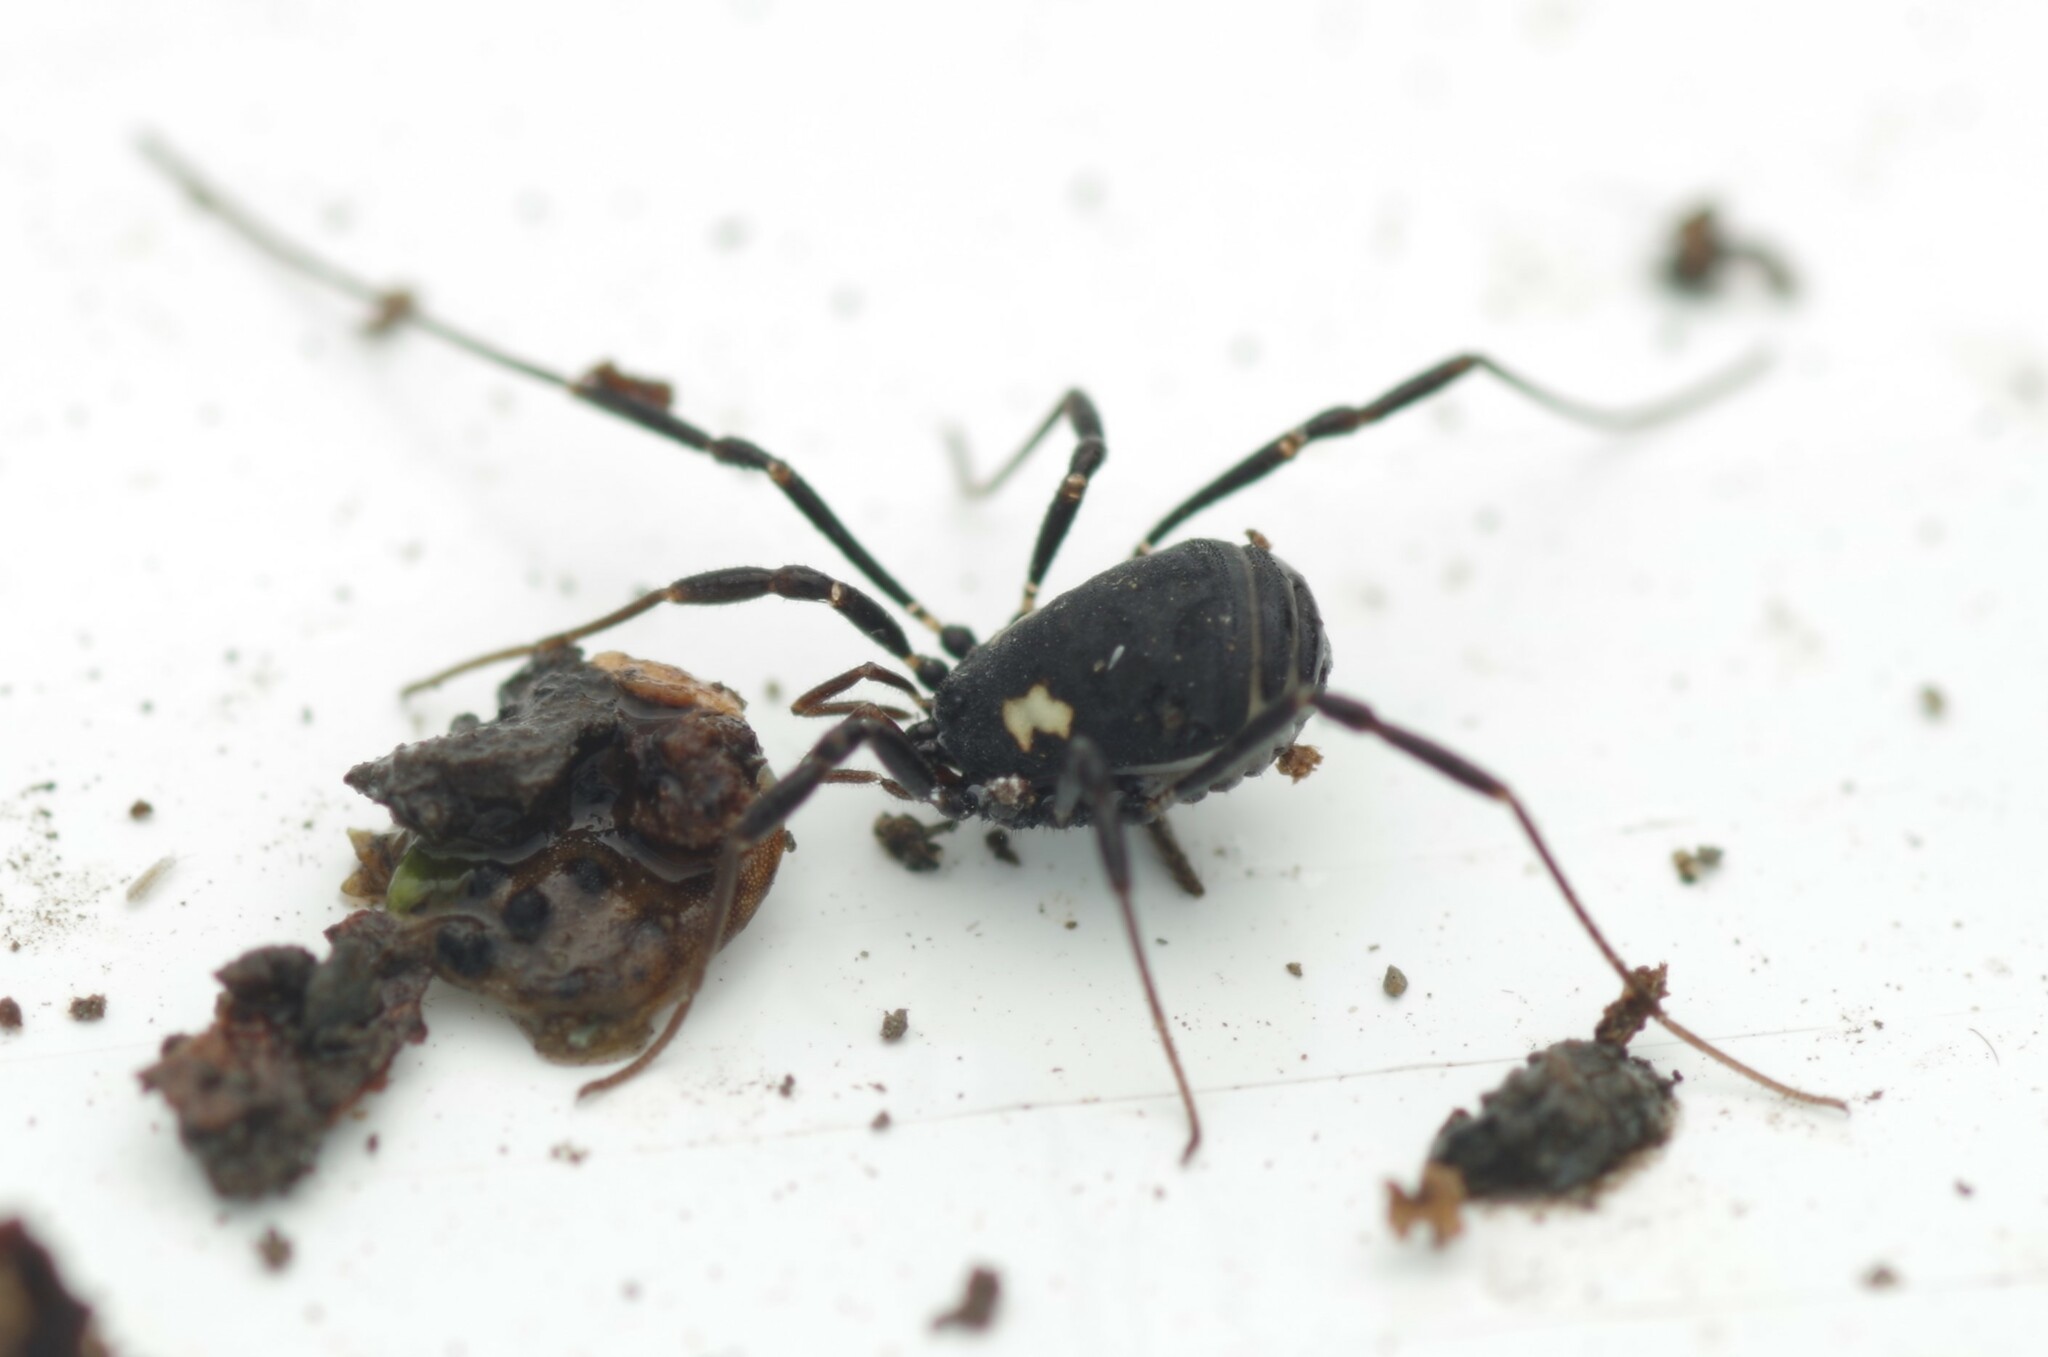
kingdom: Animalia
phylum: Arthropoda
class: Arachnida
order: Opiliones
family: Nemastomatidae
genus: Nemastoma
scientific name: Nemastoma bimaculatum
